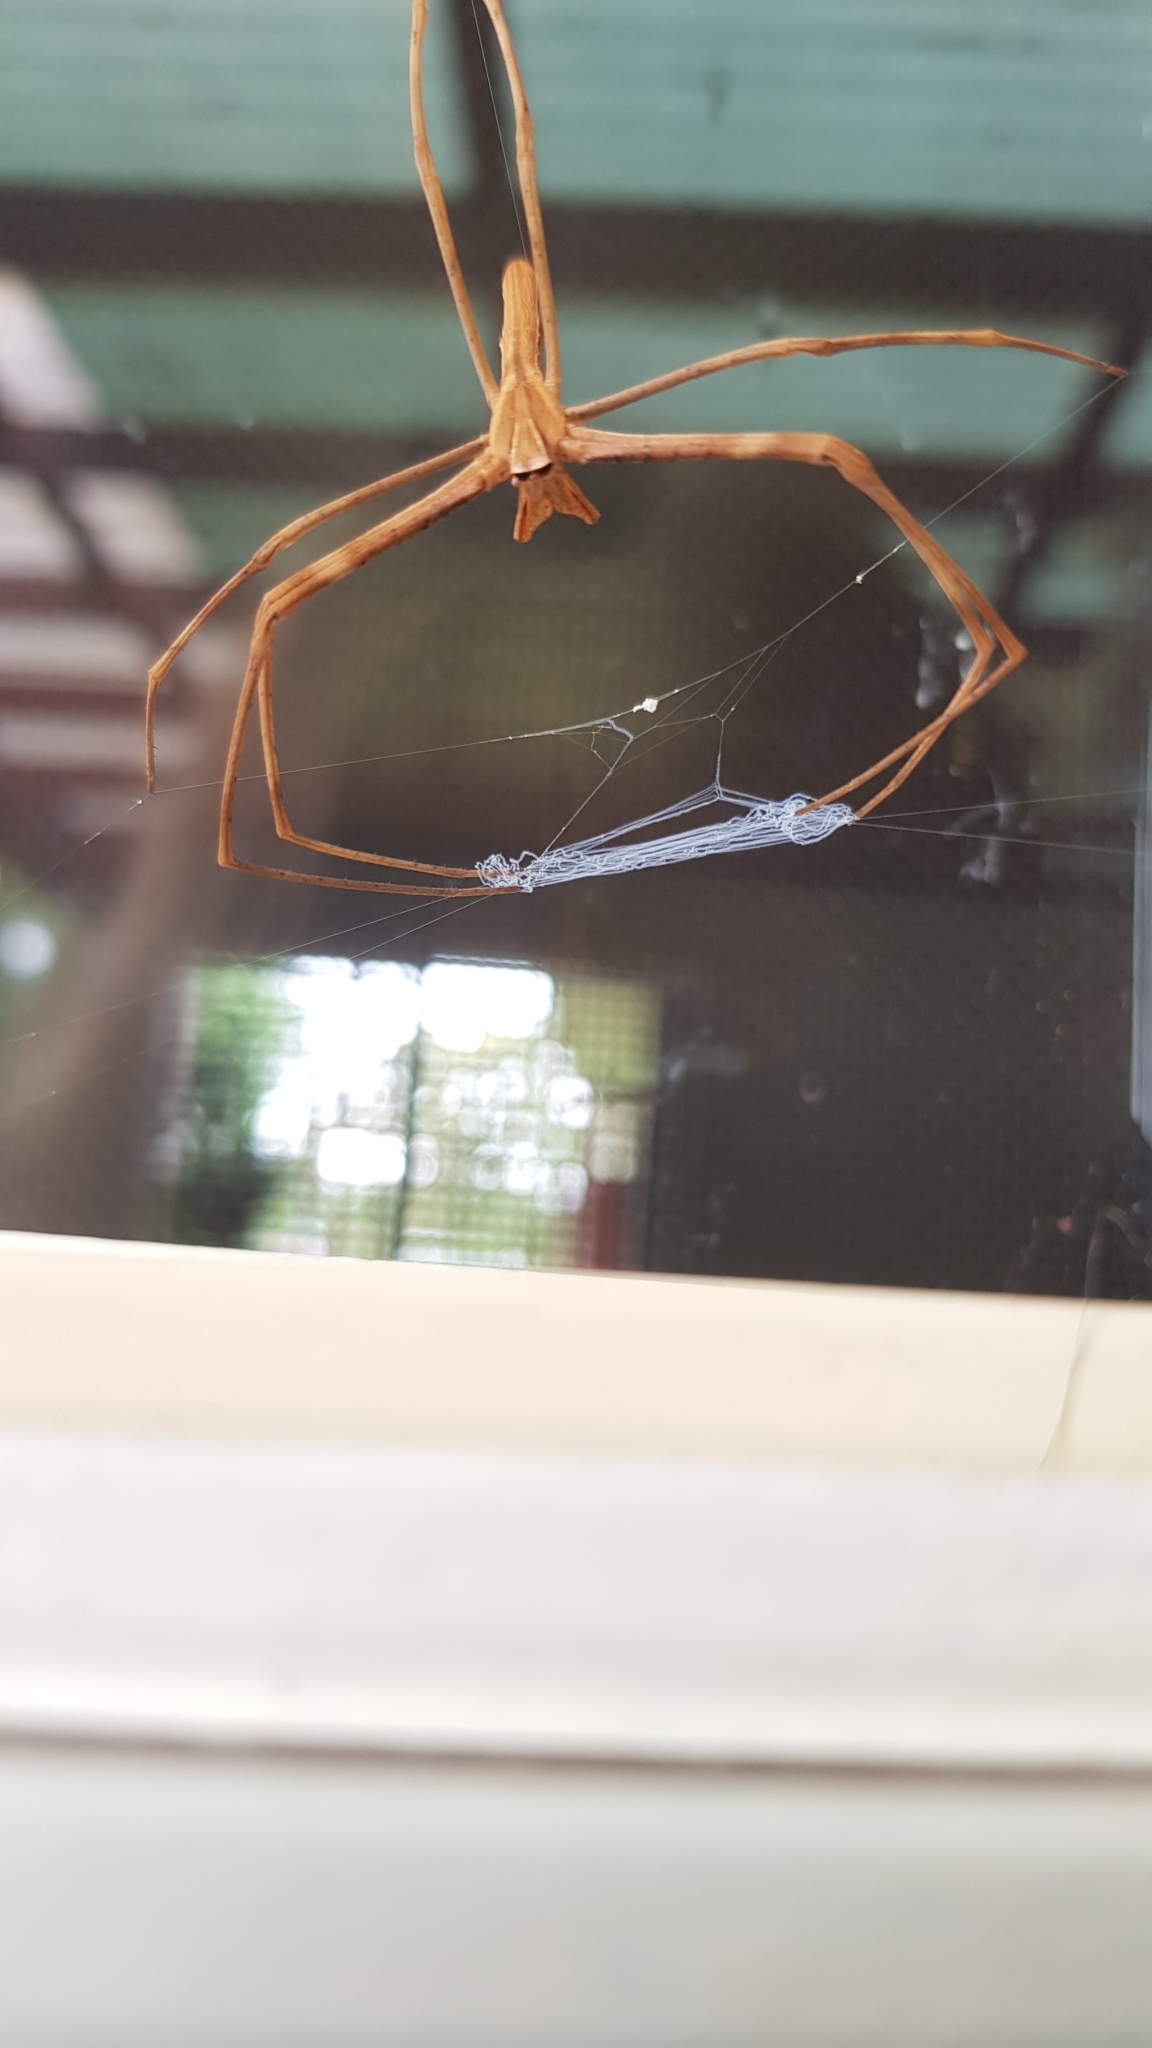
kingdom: Animalia
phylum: Arthropoda
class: Arachnida
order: Araneae
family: Deinopidae
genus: Deinopis
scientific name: Deinopis subrufa
